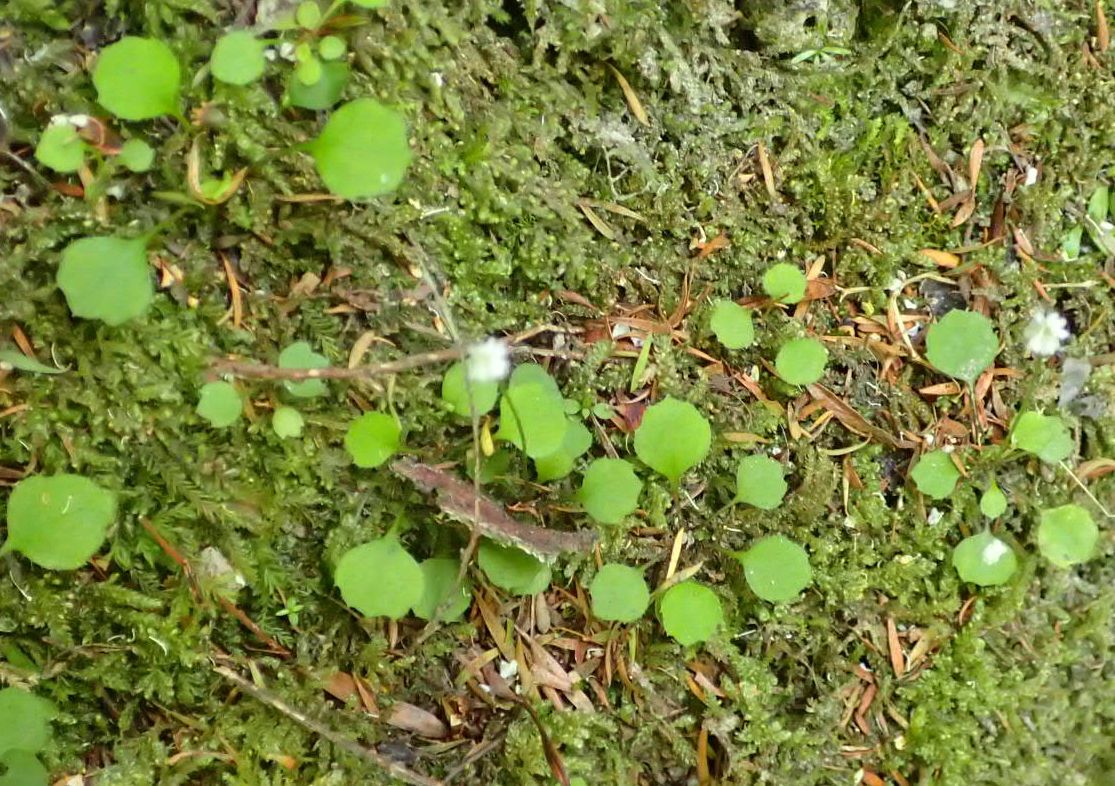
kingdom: Plantae
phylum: Tracheophyta
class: Magnoliopsida
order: Asterales
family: Asteraceae
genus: Lagenophora
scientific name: Lagenophora strangulata
